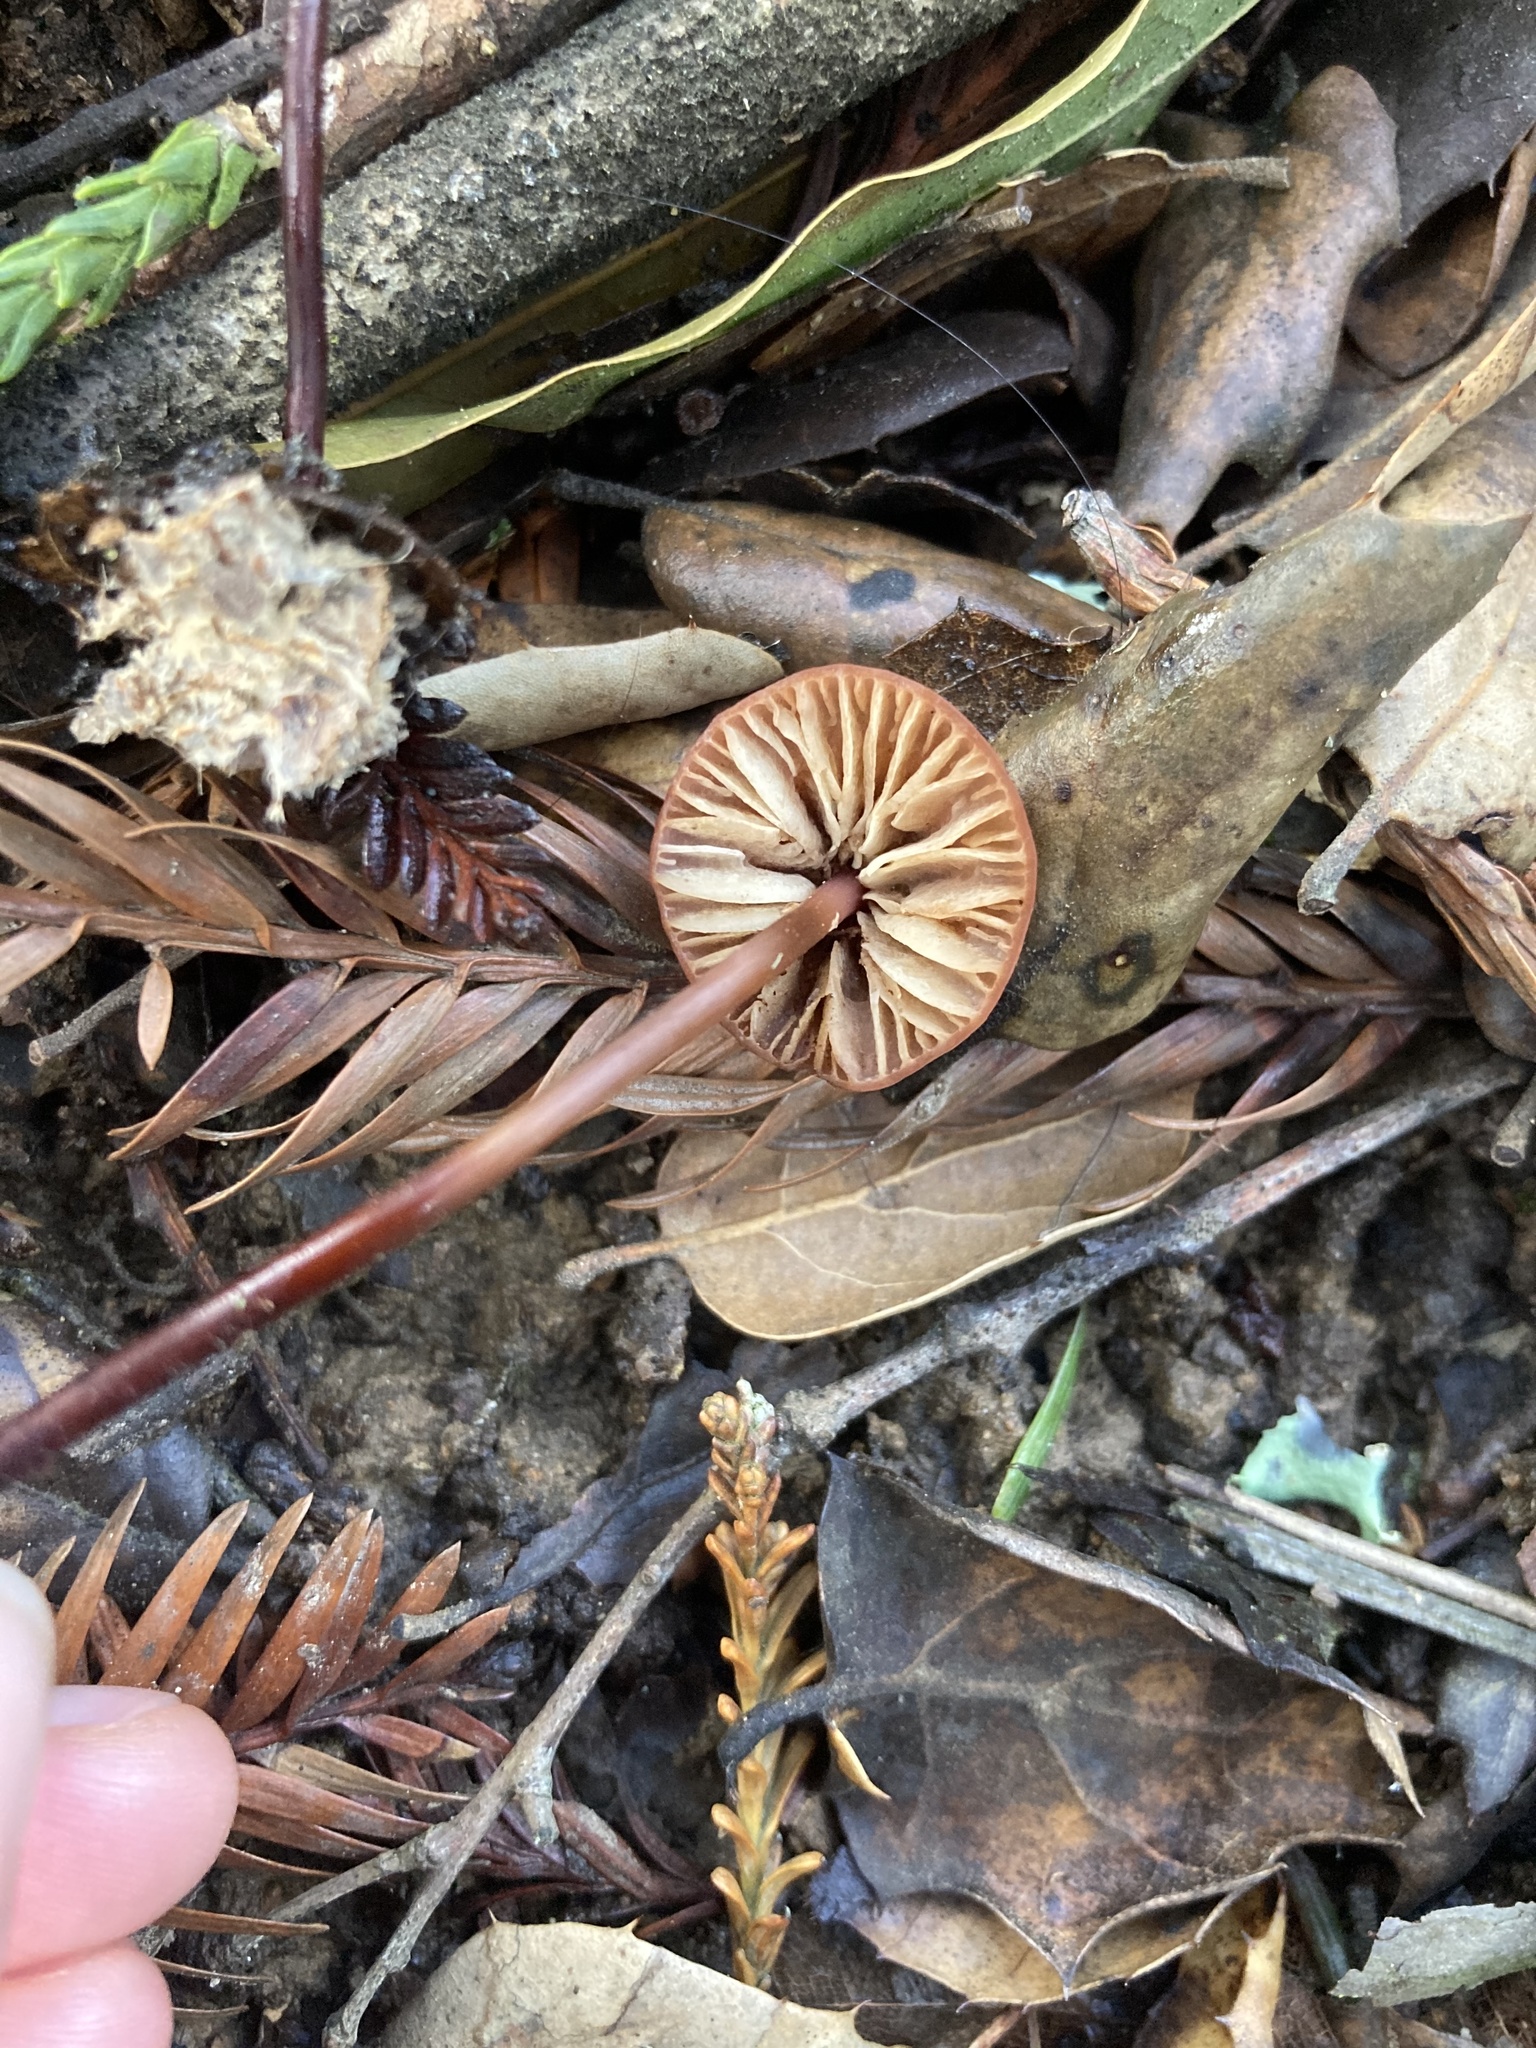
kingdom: Fungi
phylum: Basidiomycota
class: Agaricomycetes
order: Agaricales
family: Marasmiaceae
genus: Marasmius
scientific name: Marasmius plicatulus
